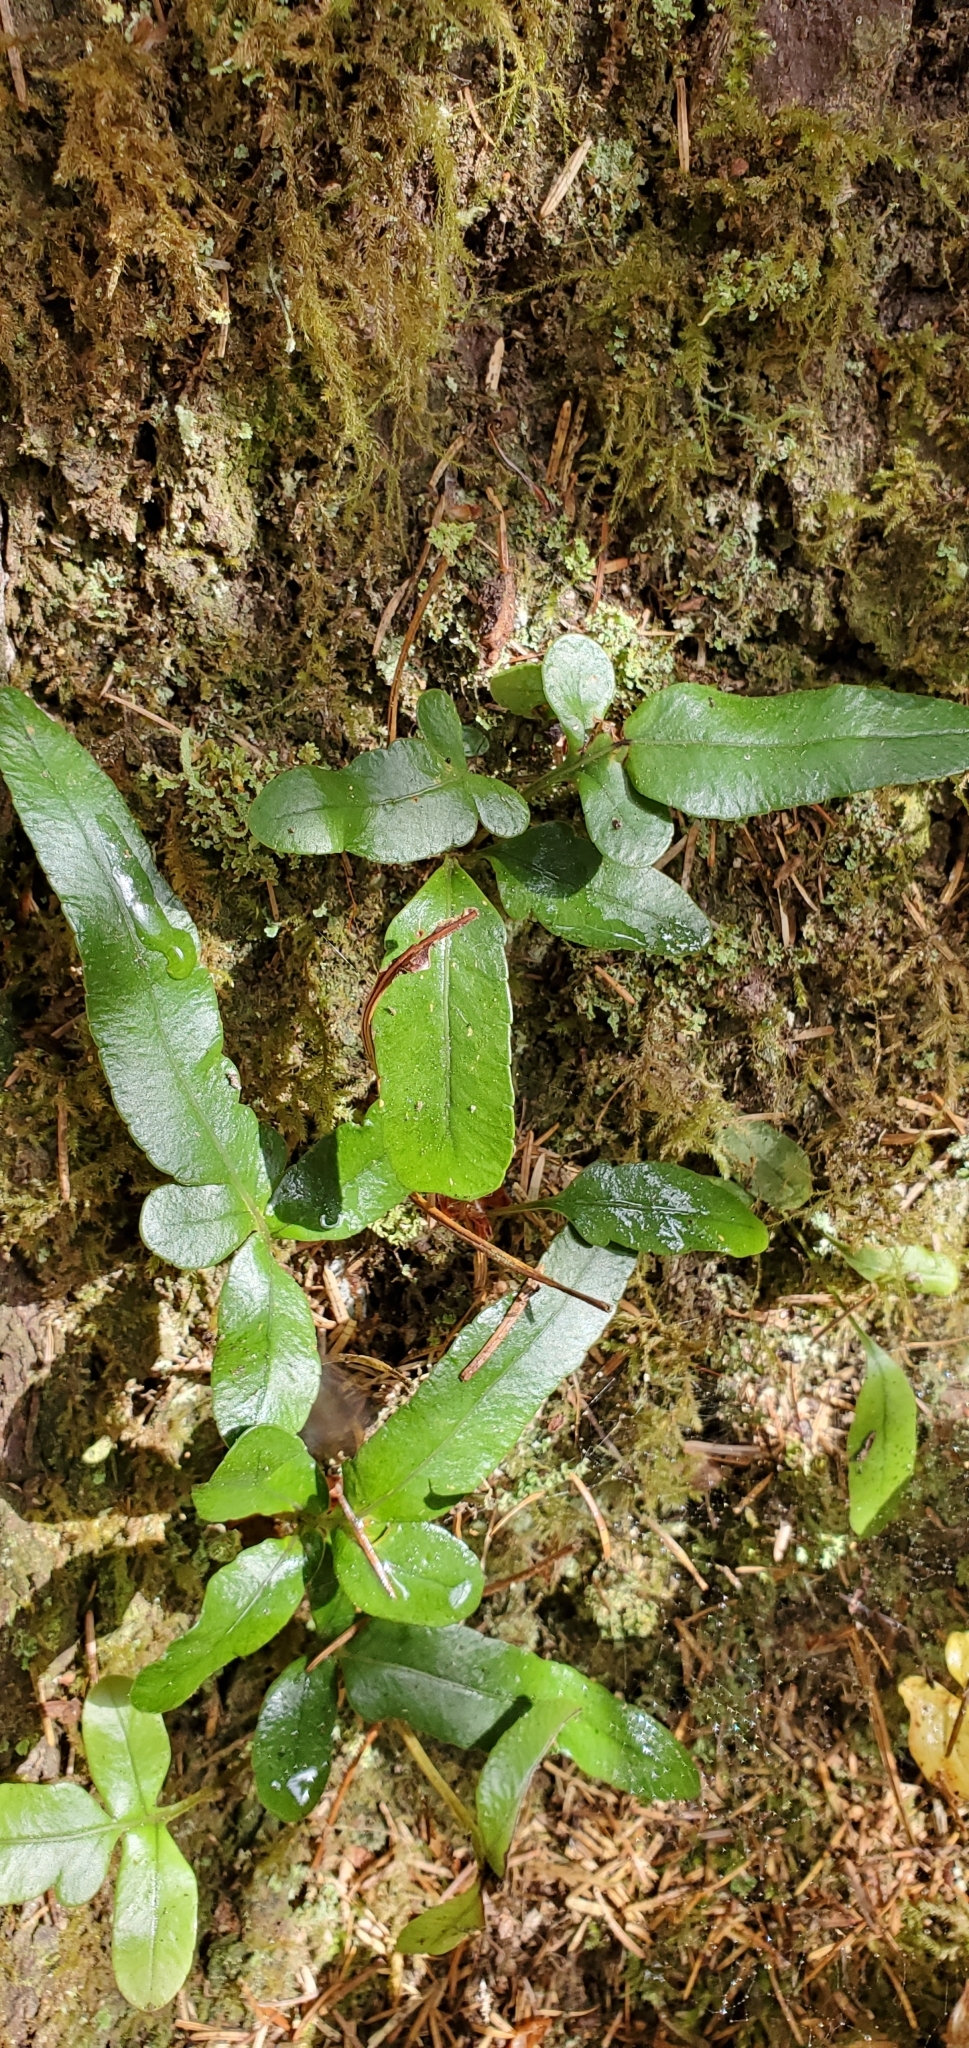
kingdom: Plantae
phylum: Tracheophyta
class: Polypodiopsida
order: Polypodiales
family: Polypodiaceae
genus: Polypodium
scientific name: Polypodium scouleri
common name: Scouler's polypody
